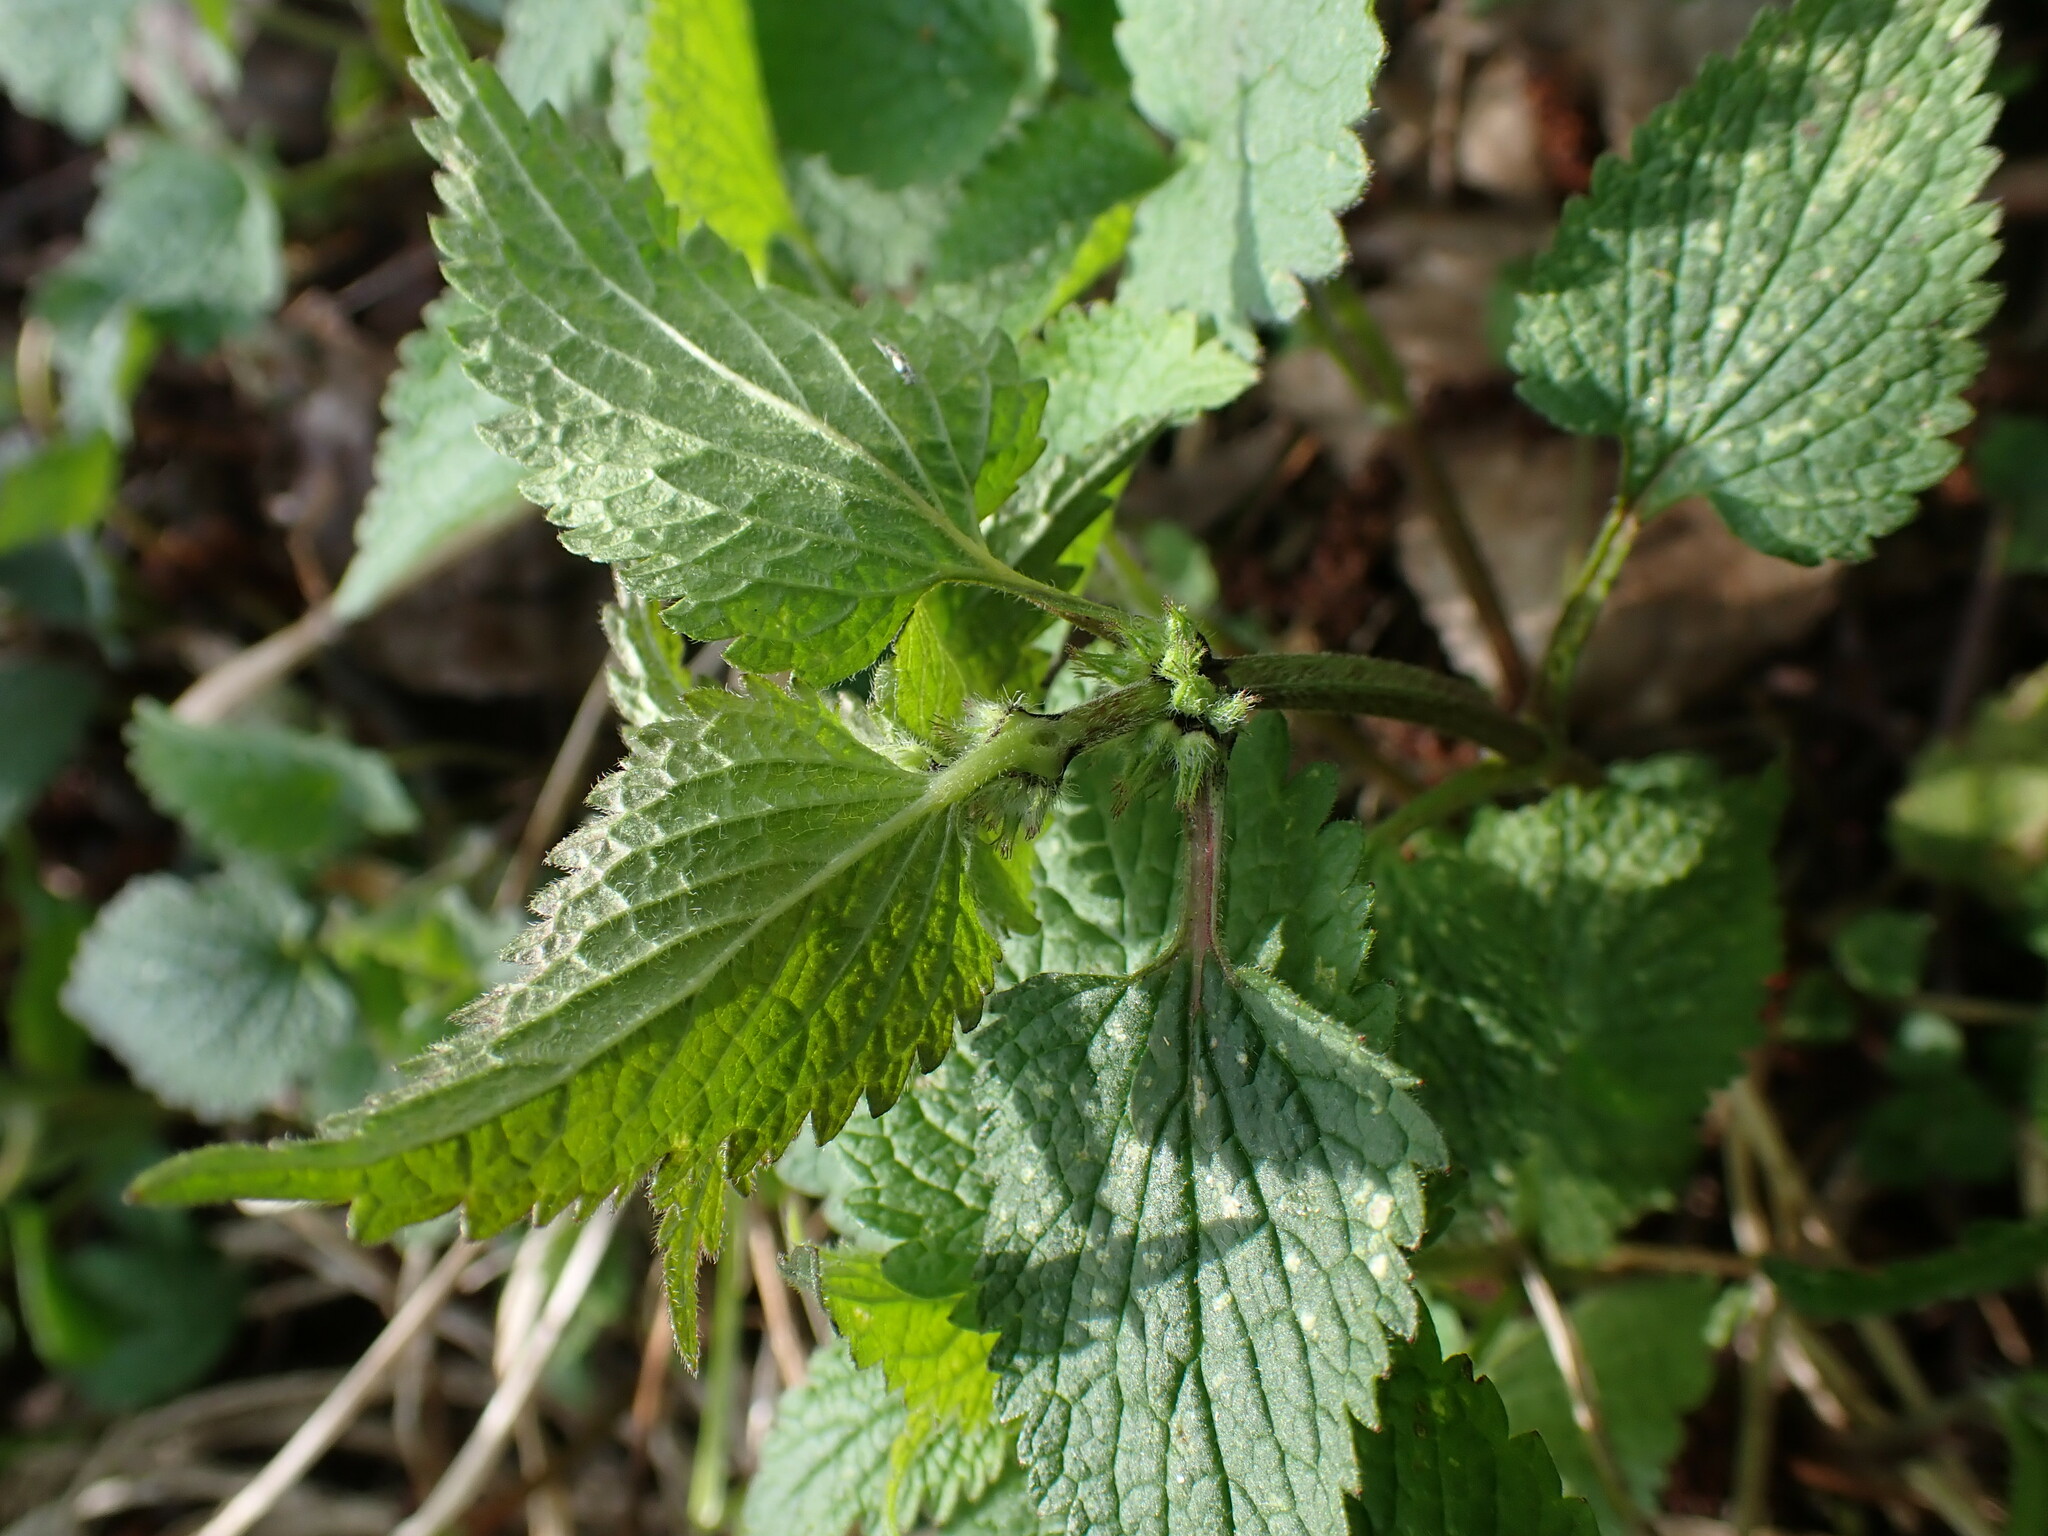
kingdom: Plantae
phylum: Tracheophyta
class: Magnoliopsida
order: Lamiales
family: Lamiaceae
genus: Lamium
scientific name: Lamium album
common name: White dead-nettle
